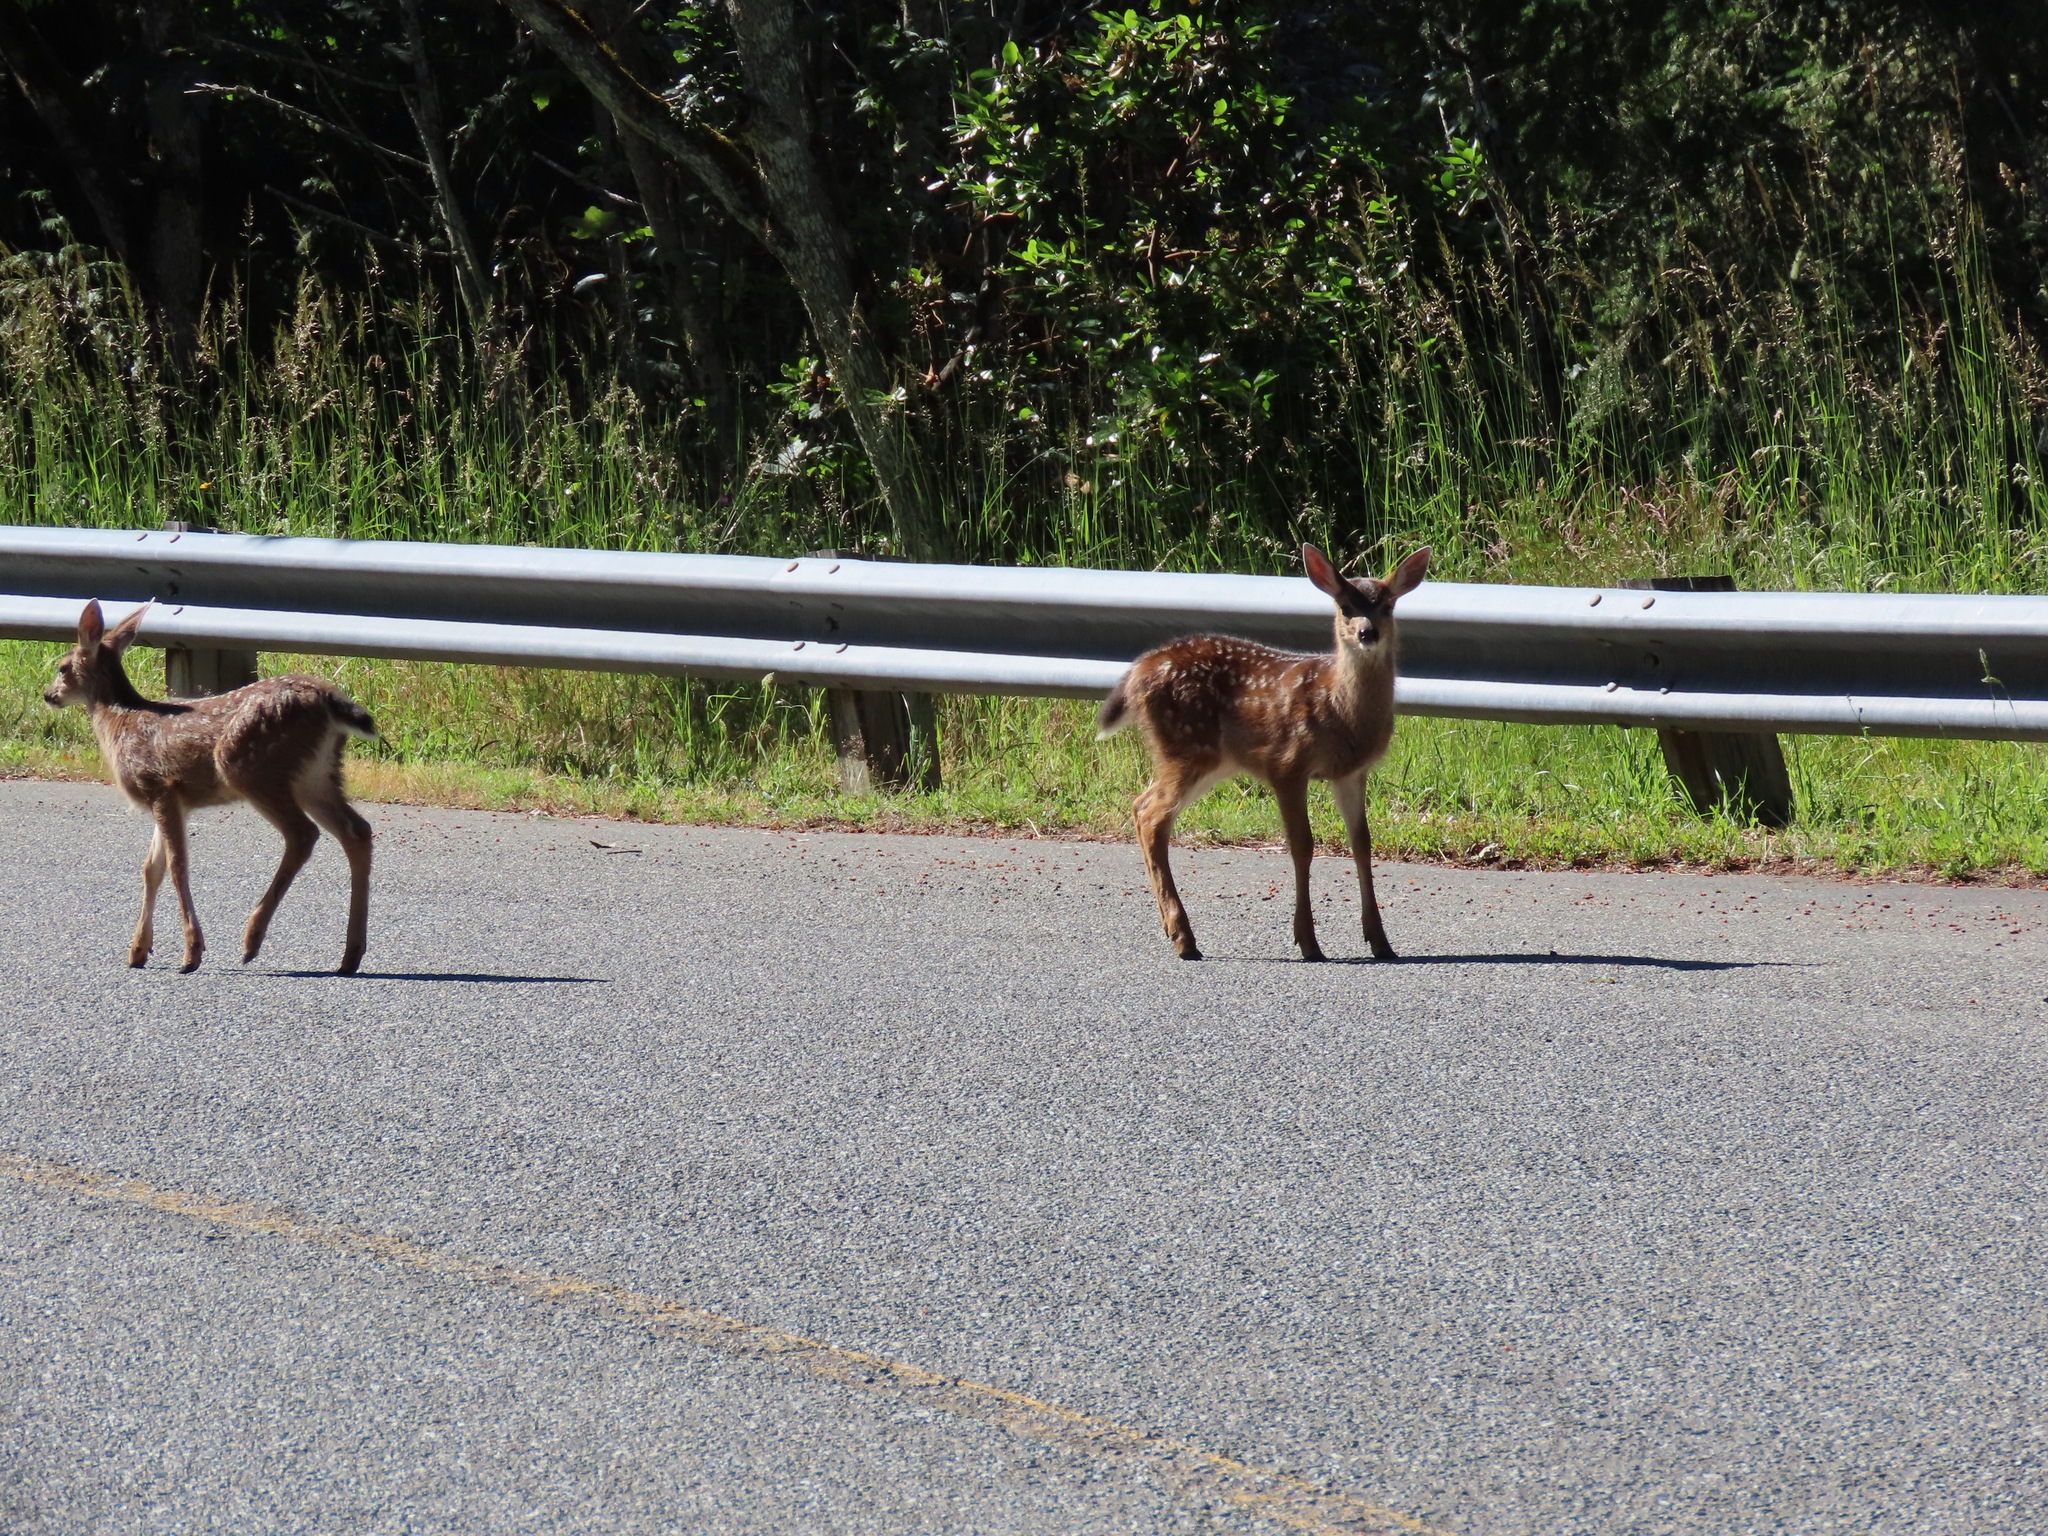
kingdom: Animalia
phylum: Chordata
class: Mammalia
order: Artiodactyla
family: Cervidae
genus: Odocoileus
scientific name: Odocoileus hemionus
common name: Mule deer
